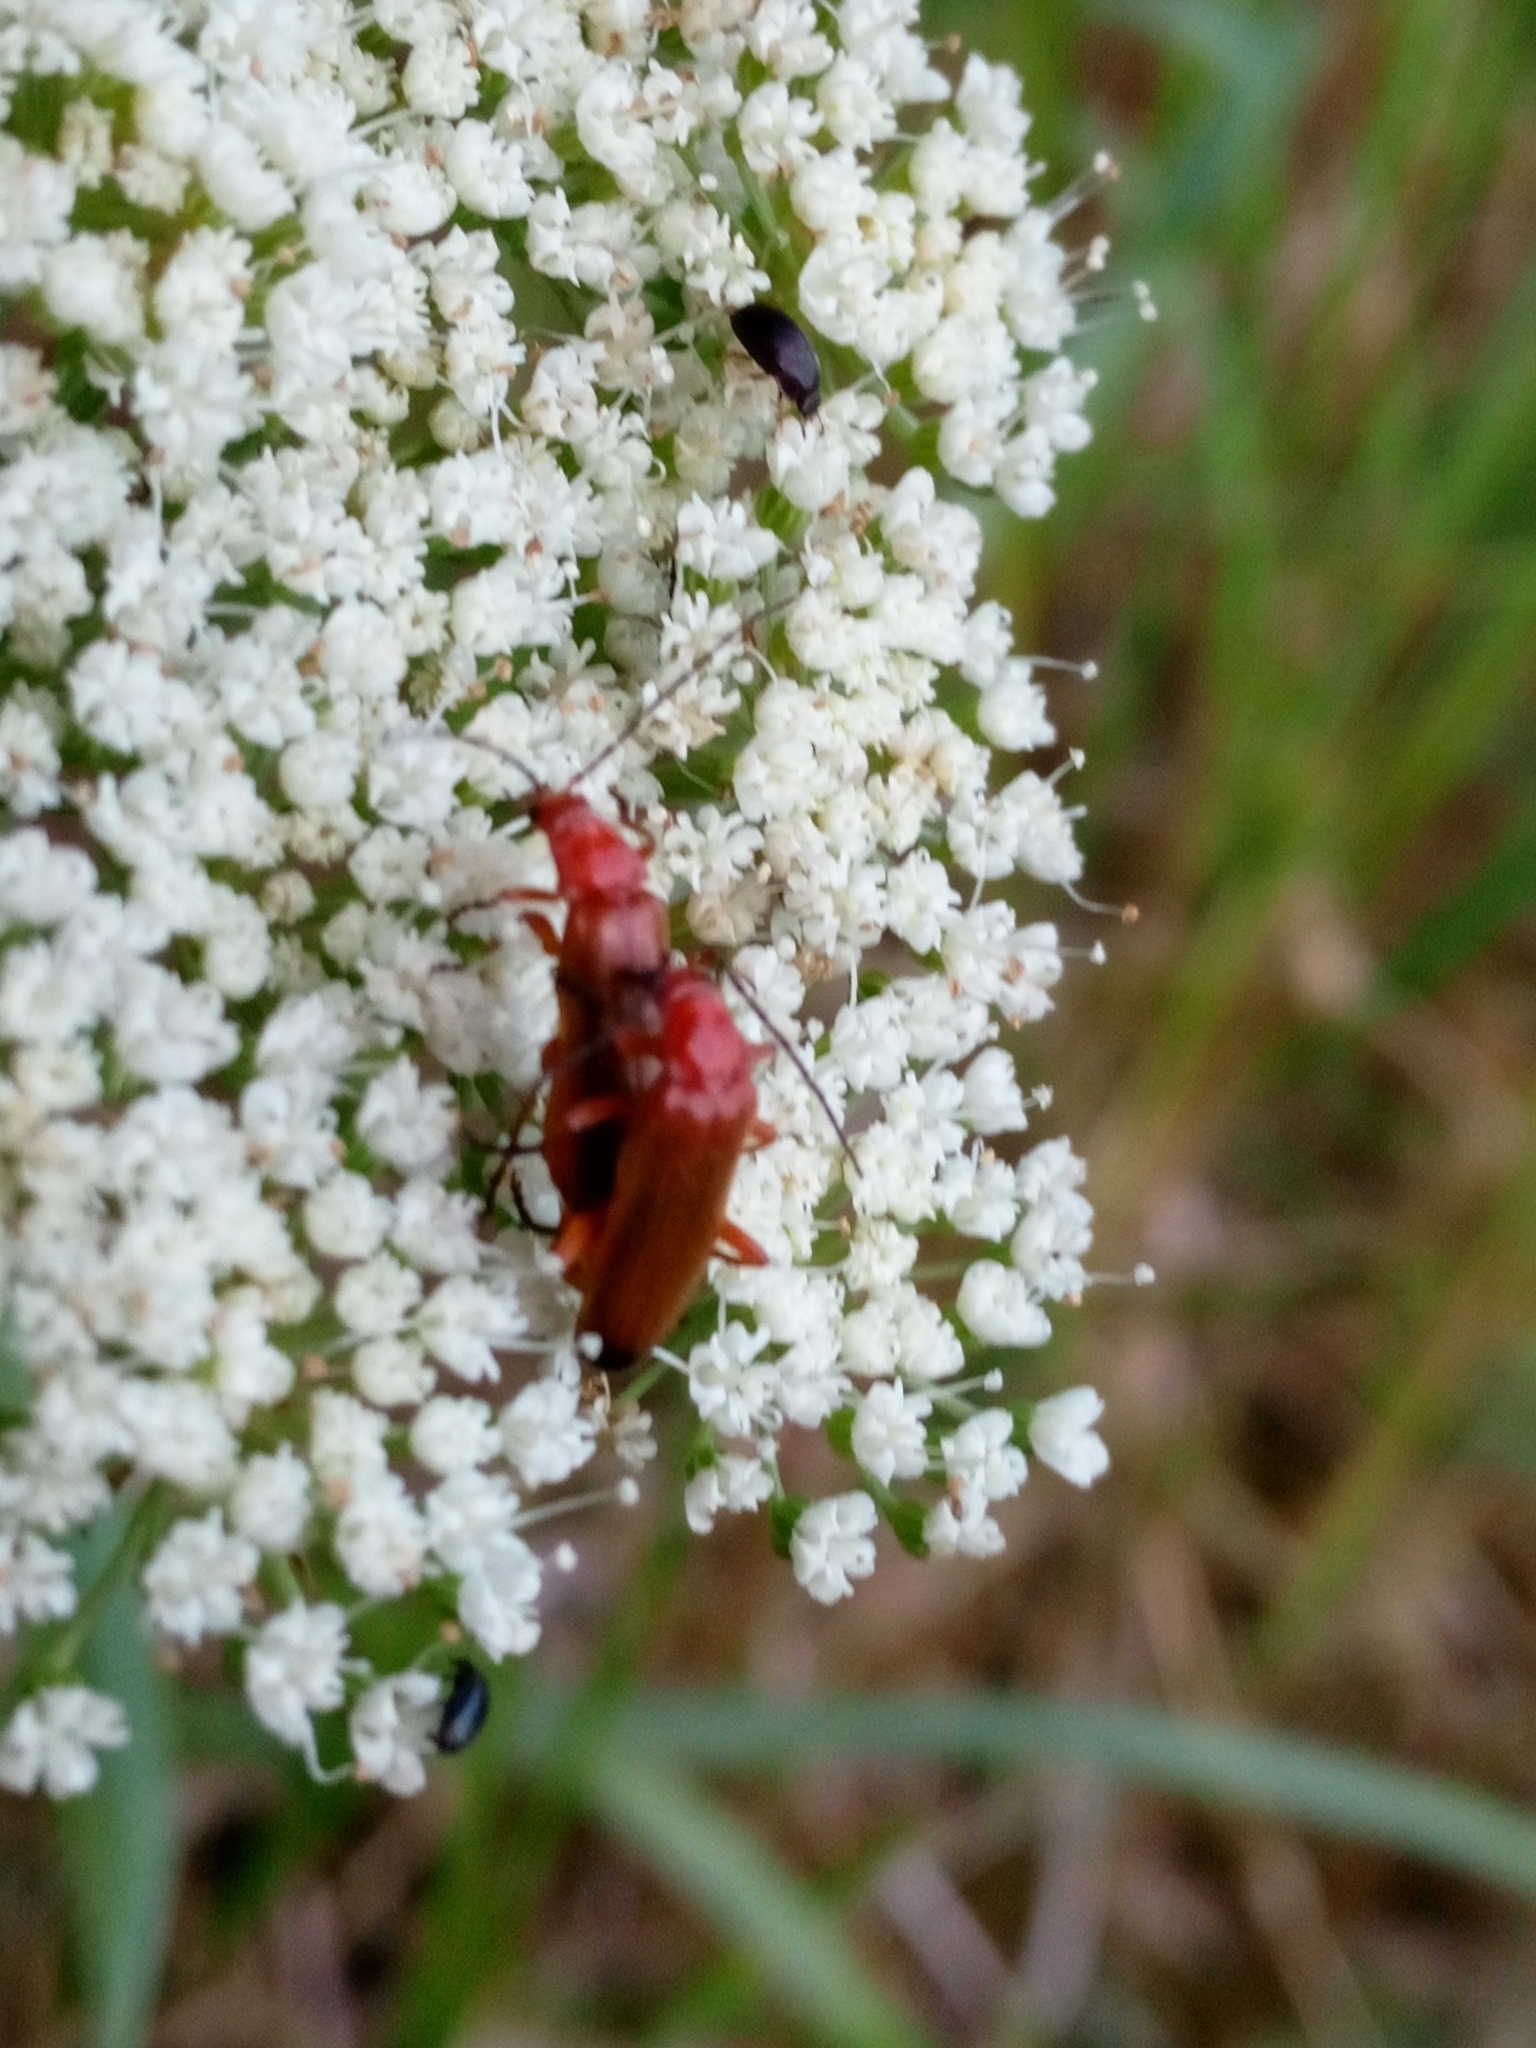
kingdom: Animalia
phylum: Arthropoda
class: Insecta
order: Coleoptera
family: Cantharidae
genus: Rhagonycha
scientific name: Rhagonycha fulva
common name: Common red soldier beetle
